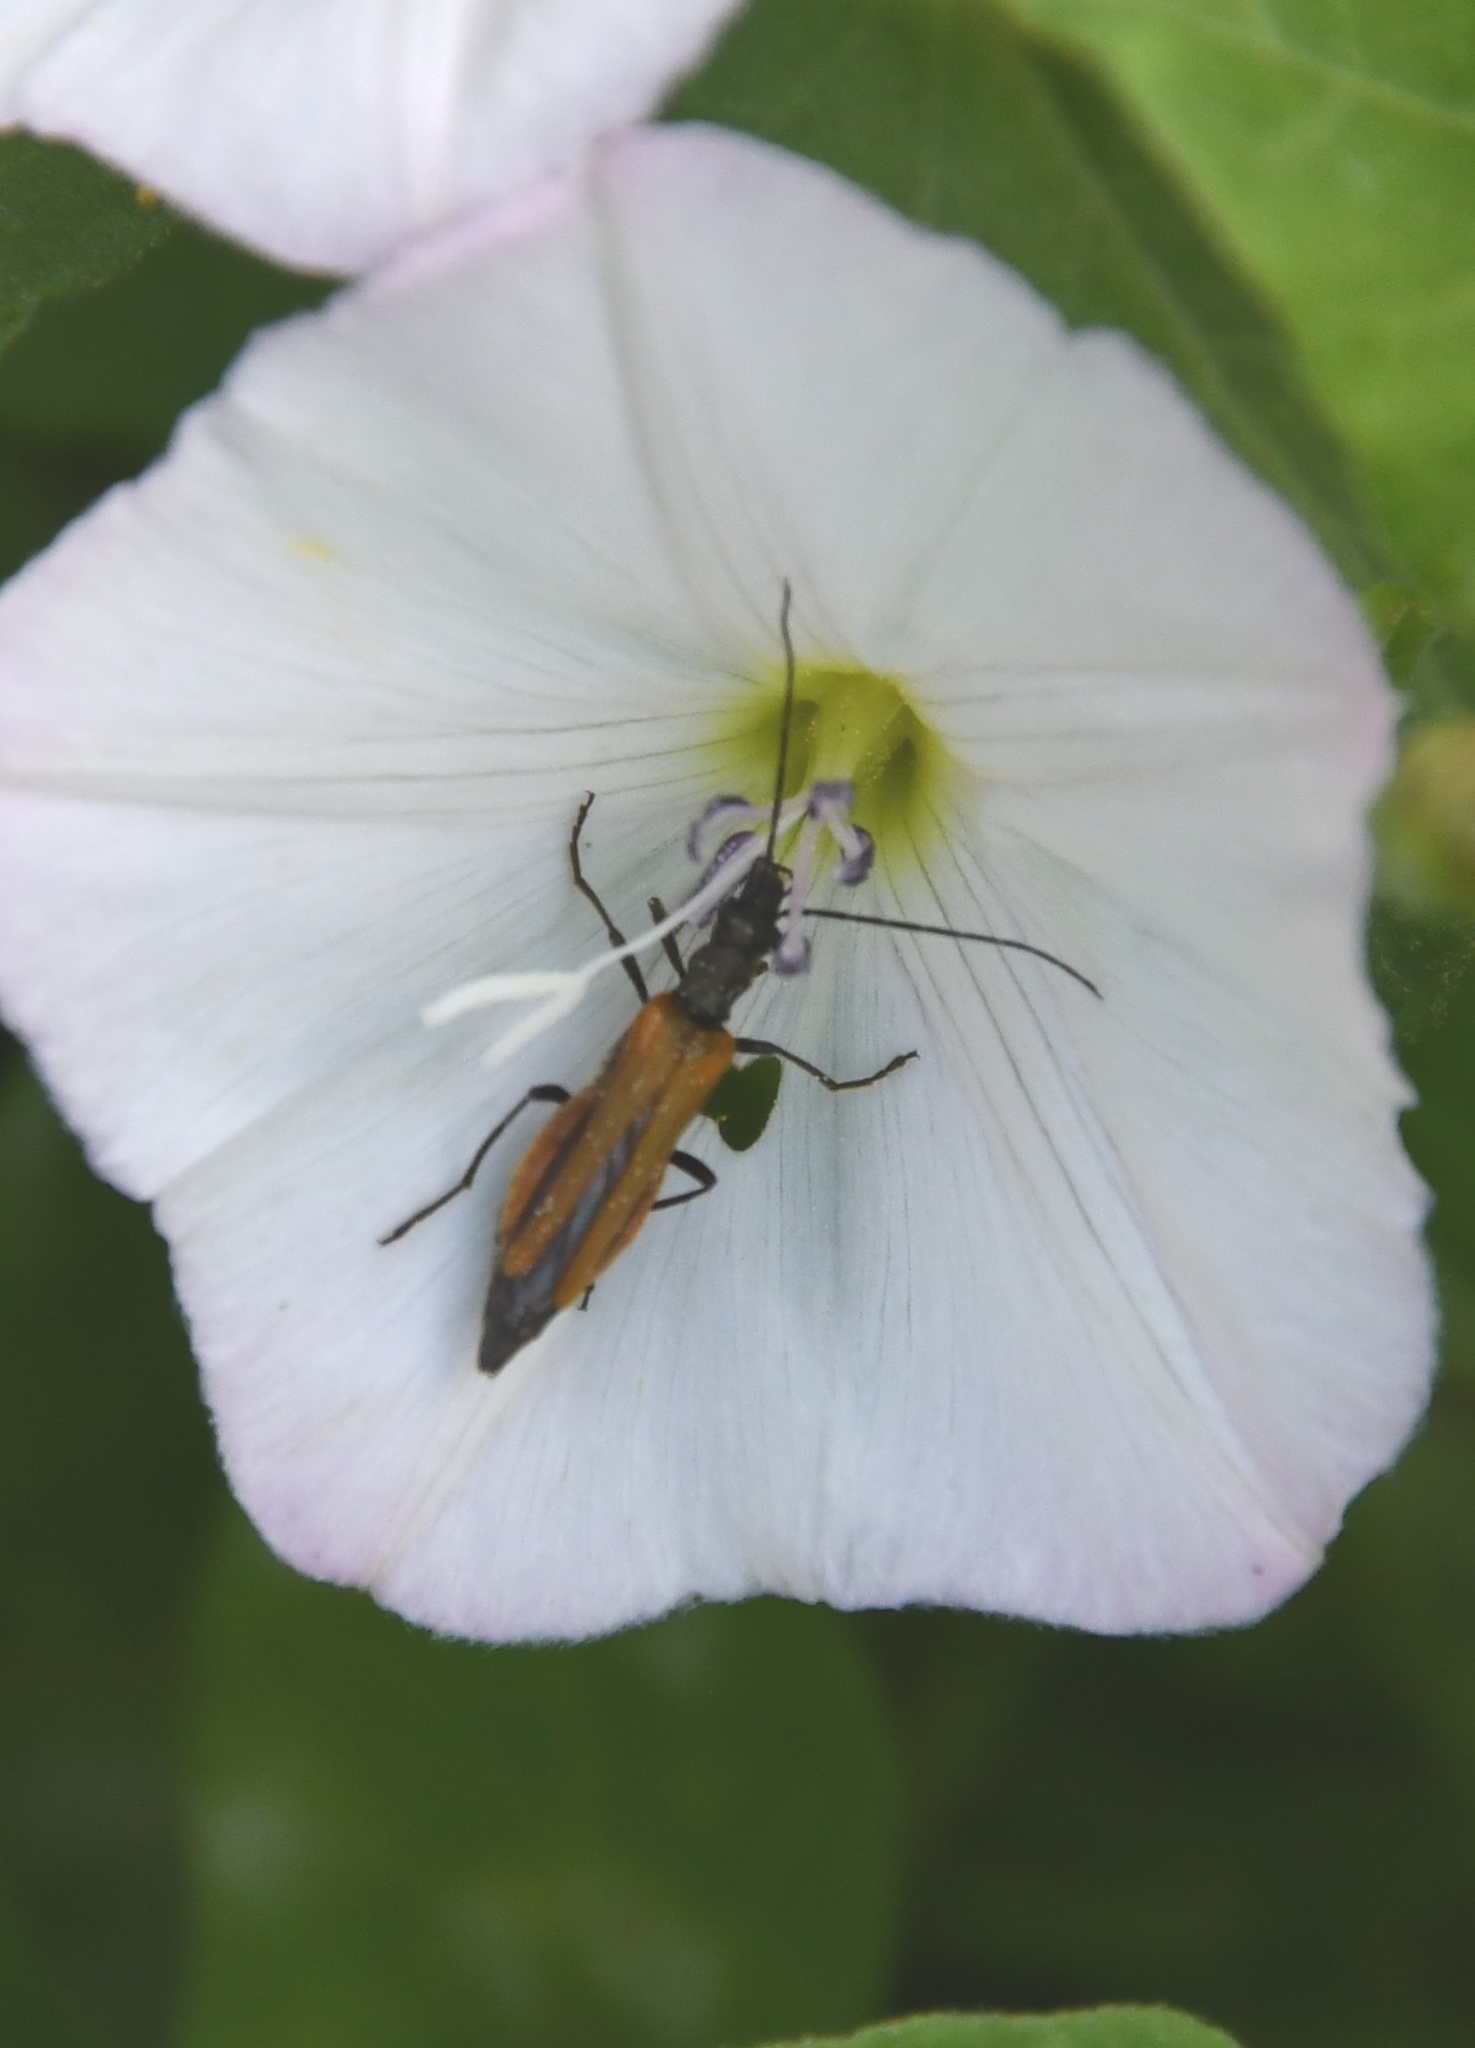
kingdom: Animalia
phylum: Arthropoda
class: Insecta
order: Coleoptera
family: Oedemeridae
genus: Oedemera
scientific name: Oedemera femorata
